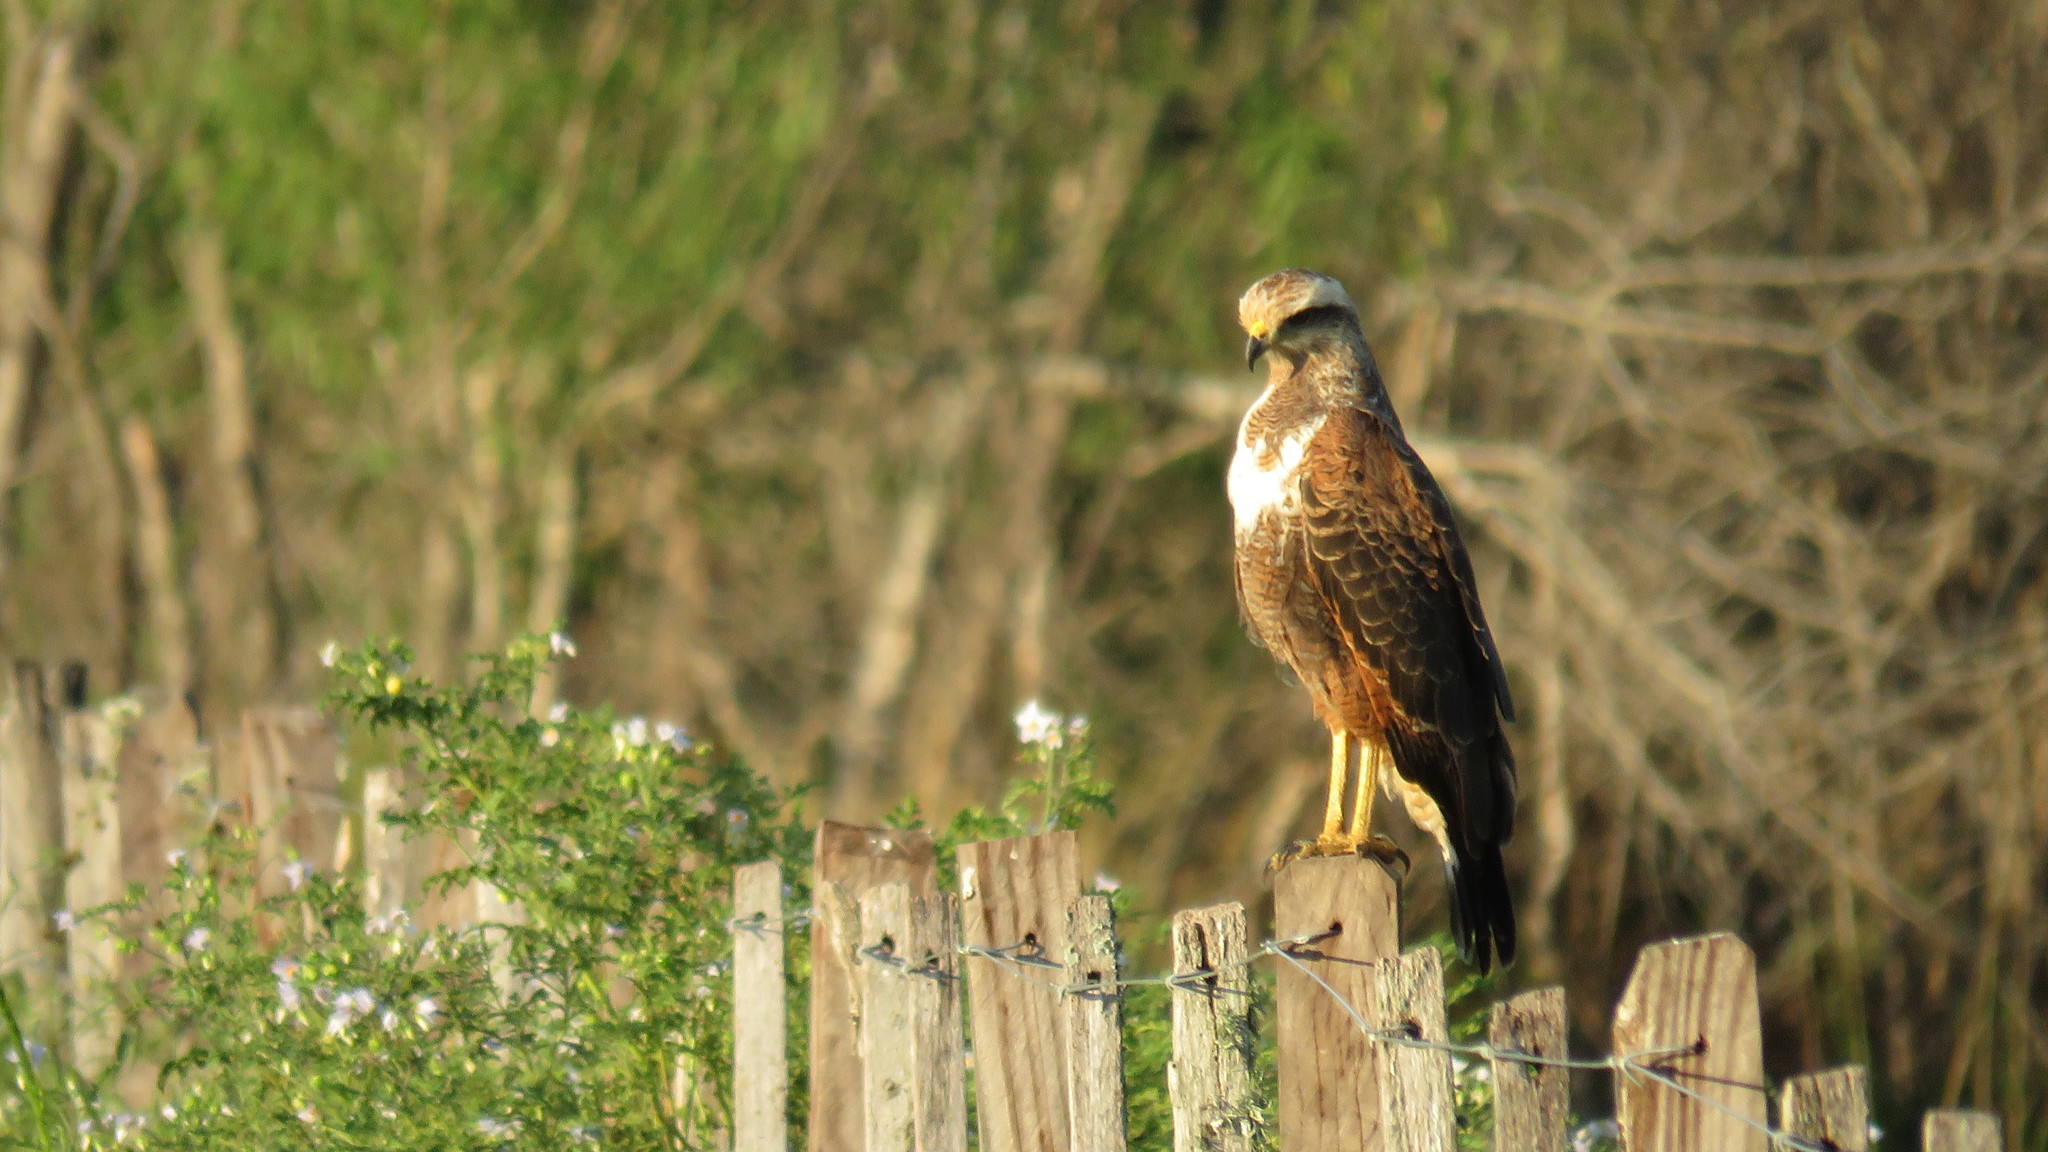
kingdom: Animalia
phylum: Chordata
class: Aves
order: Accipitriformes
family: Accipitridae
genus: Buteogallus
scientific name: Buteogallus meridionalis
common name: Savanna hawk
